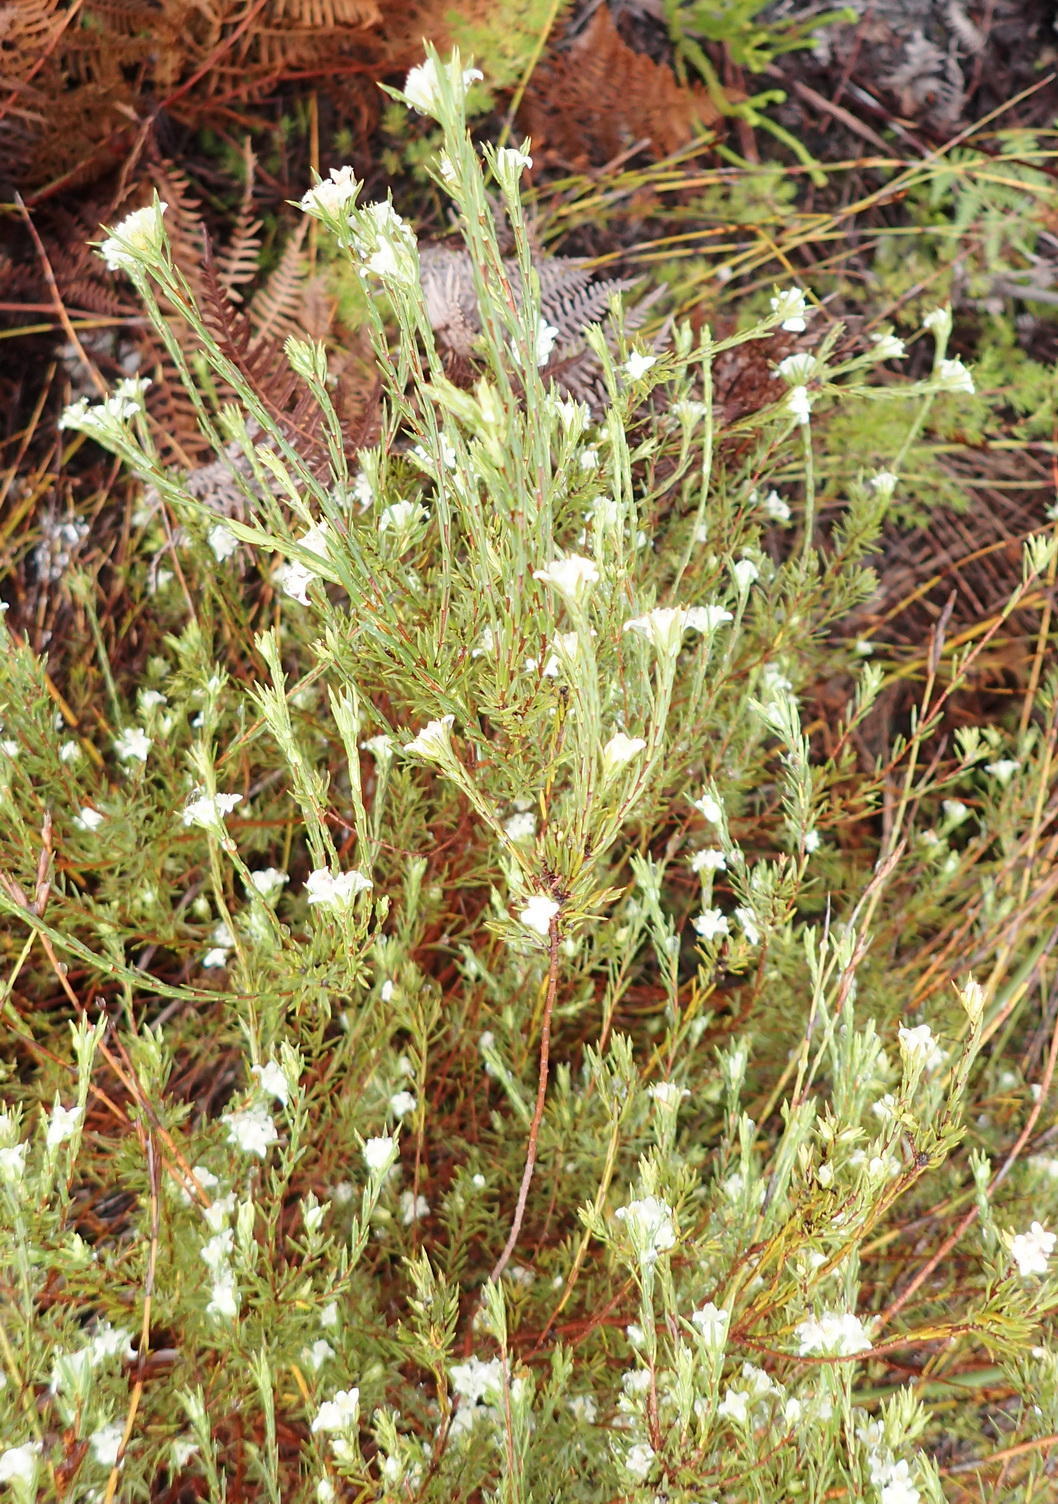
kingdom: Plantae
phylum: Tracheophyta
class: Magnoliopsida
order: Malvales
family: Thymelaeaceae
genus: Lachnaea
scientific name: Lachnaea diosmoides
